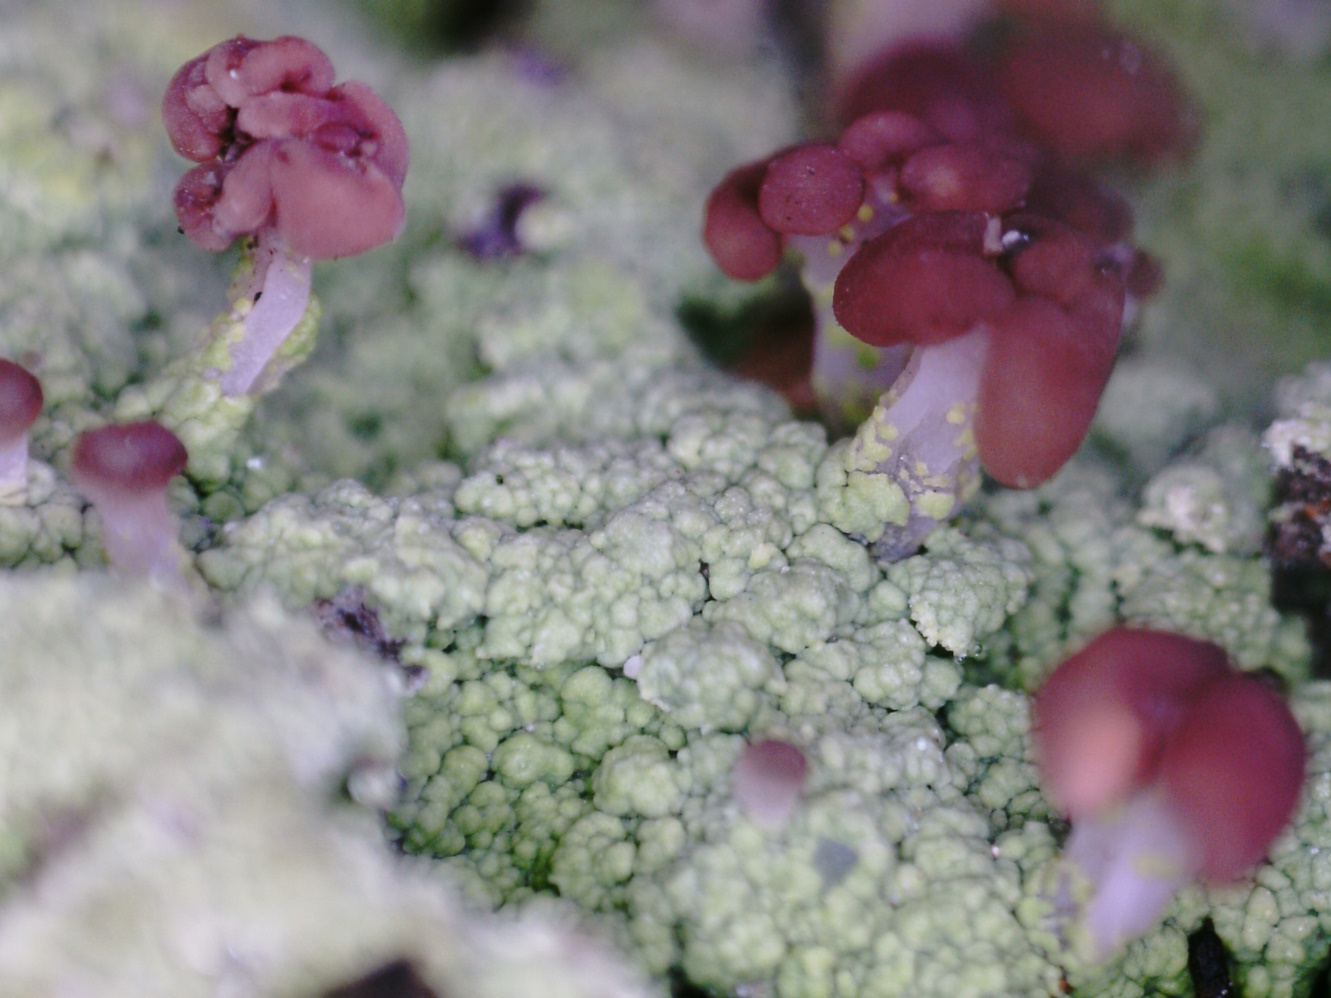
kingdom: Fungi
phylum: Ascomycota
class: Lecanoromycetes
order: Baeomycetales
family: Baeomycetaceae
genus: Baeomyces
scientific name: Baeomyces rufus
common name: Brown beret lichen
